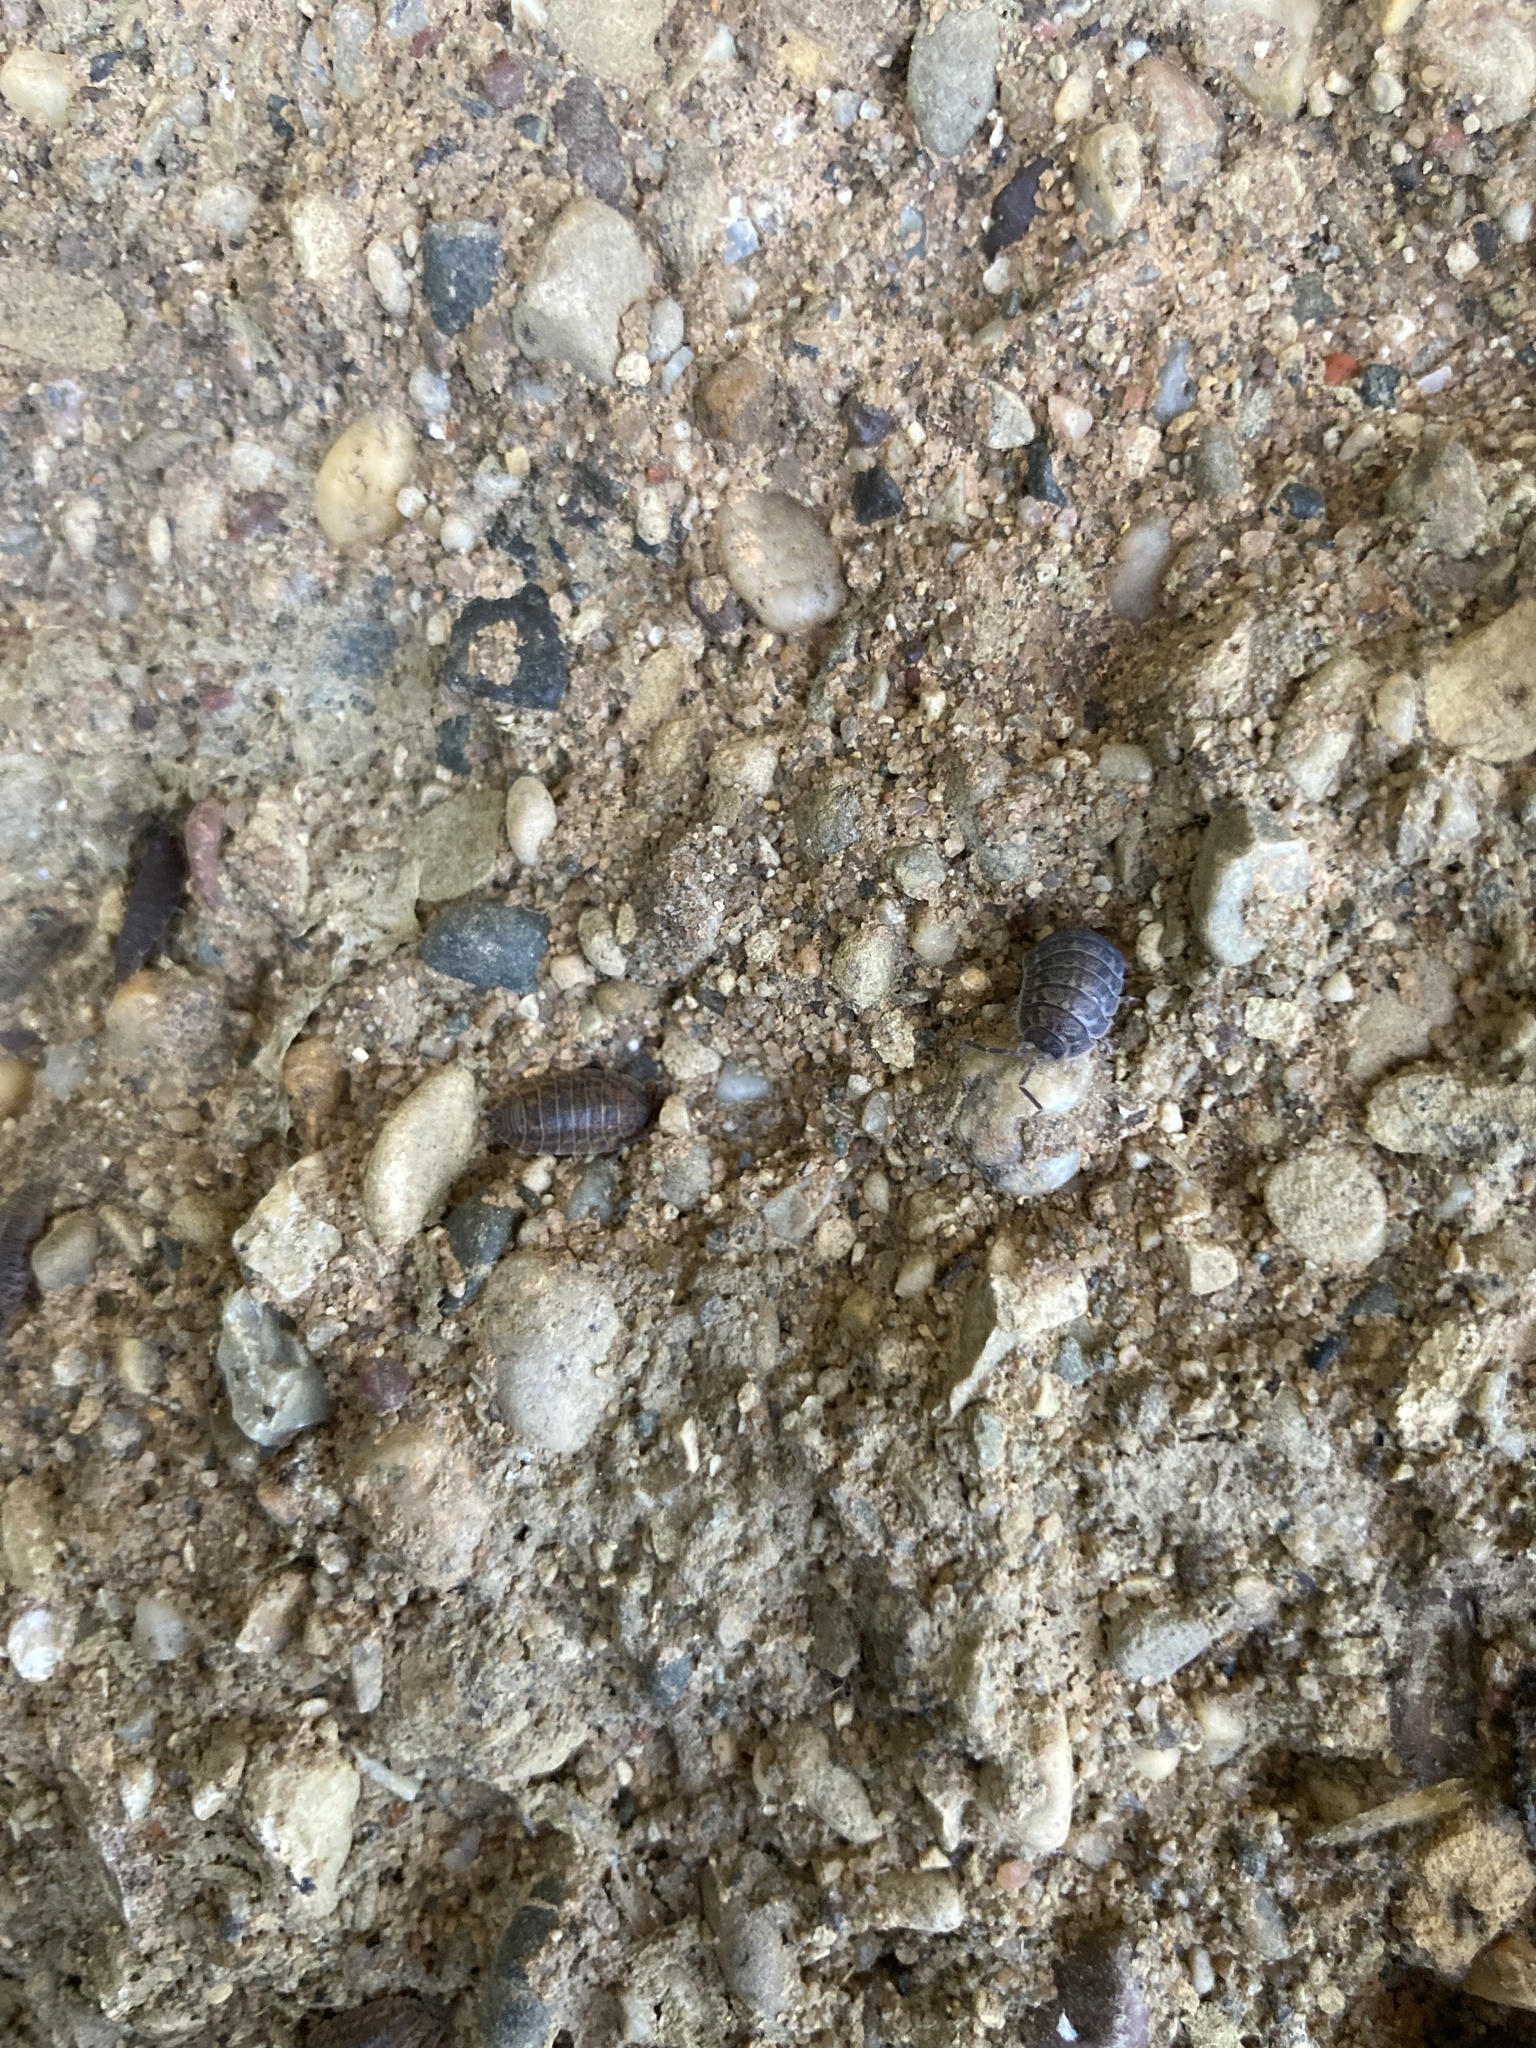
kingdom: Animalia
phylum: Arthropoda
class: Malacostraca
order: Isopoda
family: Trachelipodidae
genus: Trachelipus
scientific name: Trachelipus rathkii
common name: Isopod
